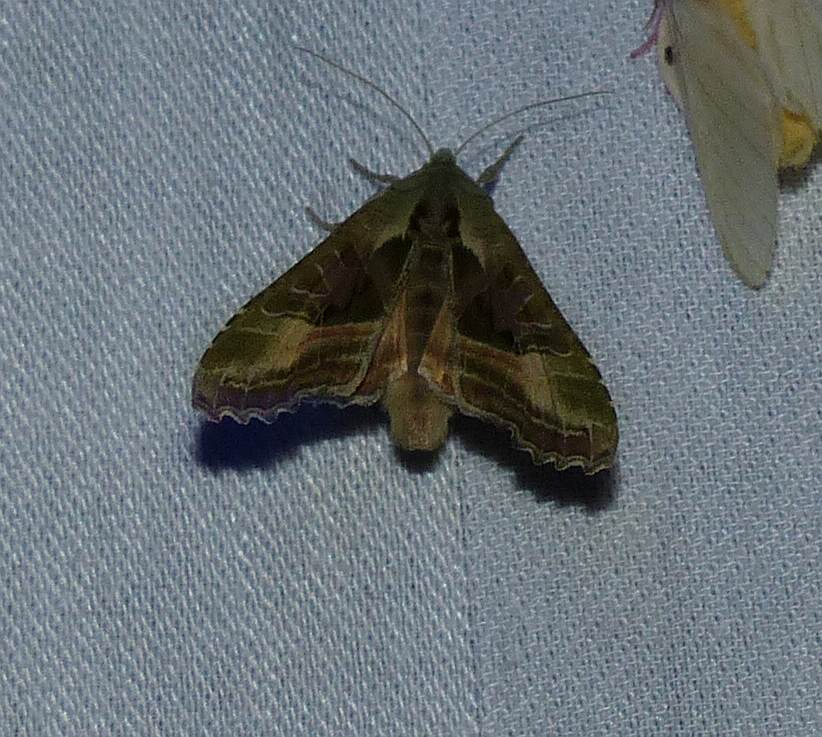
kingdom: Animalia
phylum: Arthropoda
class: Insecta
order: Lepidoptera
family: Noctuidae
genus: Phlogophora
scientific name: Phlogophora iris
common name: Olive angle shades
